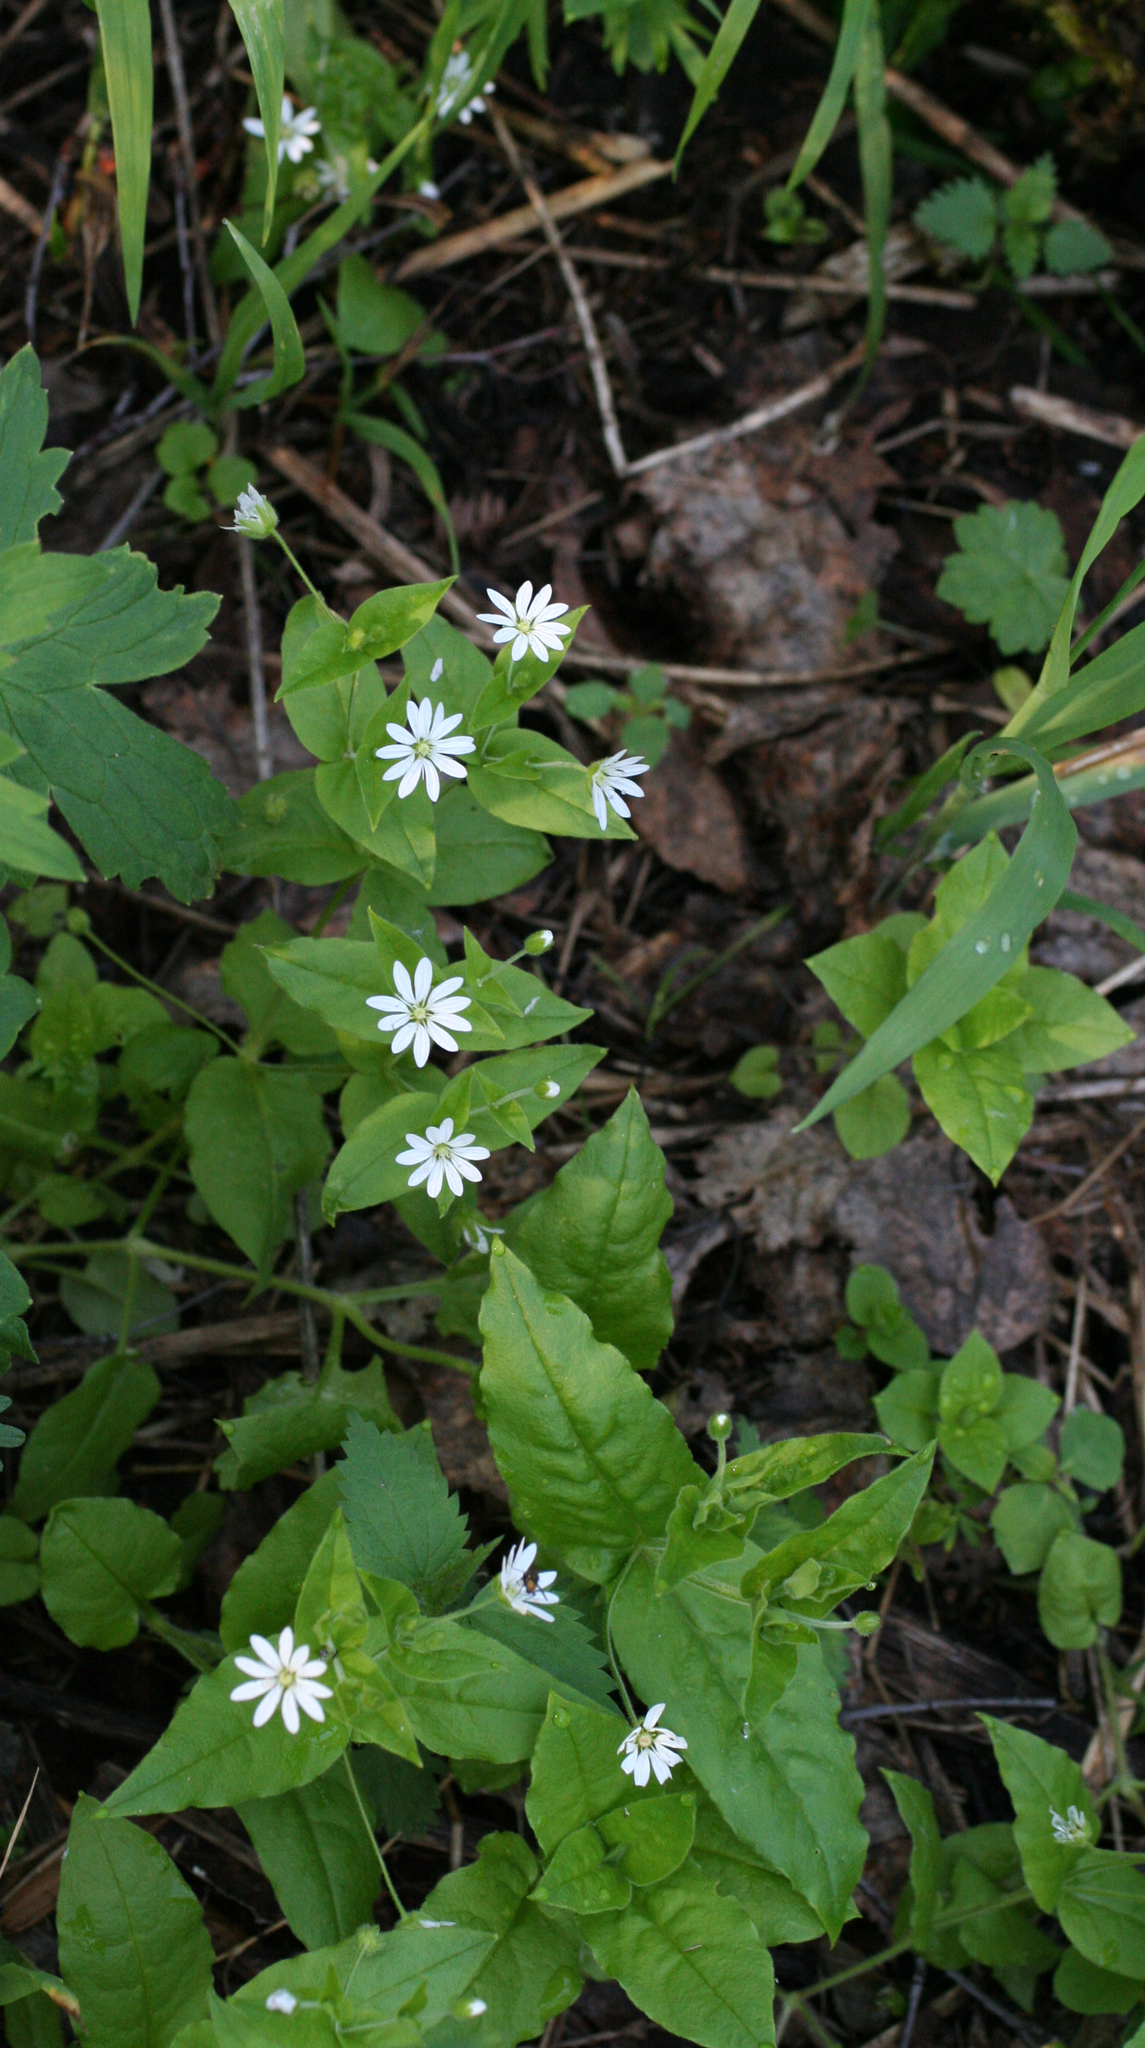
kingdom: Plantae
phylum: Tracheophyta
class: Magnoliopsida
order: Caryophyllales
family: Caryophyllaceae
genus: Stellaria
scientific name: Stellaria bungeana
